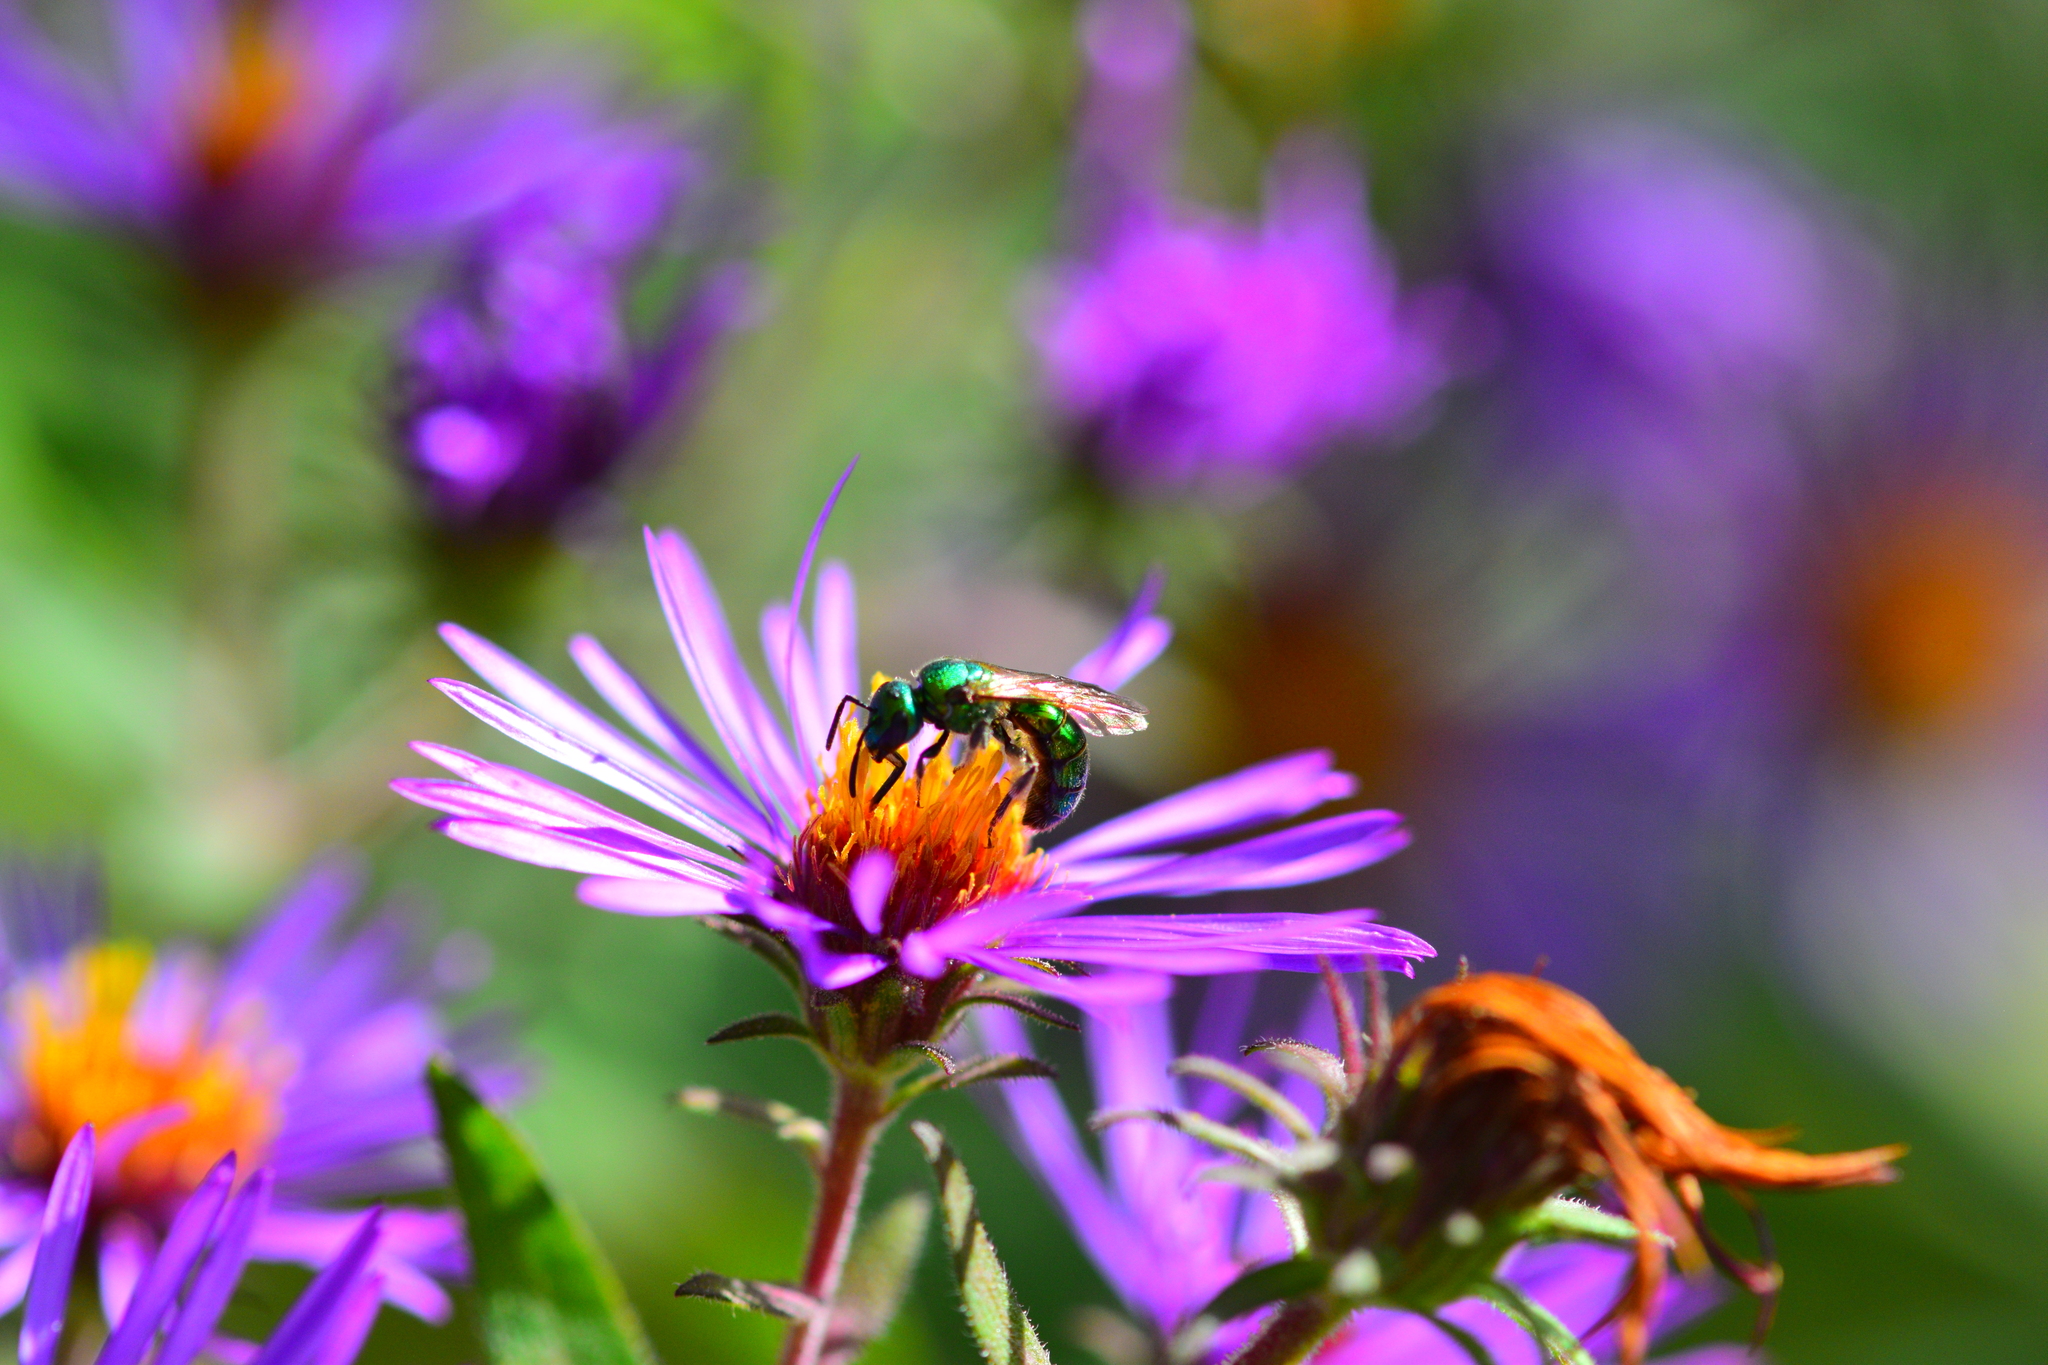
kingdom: Animalia
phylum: Arthropoda
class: Insecta
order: Hymenoptera
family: Halictidae
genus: Augochlora
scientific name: Augochlora pura
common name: Pure green sweat bee
